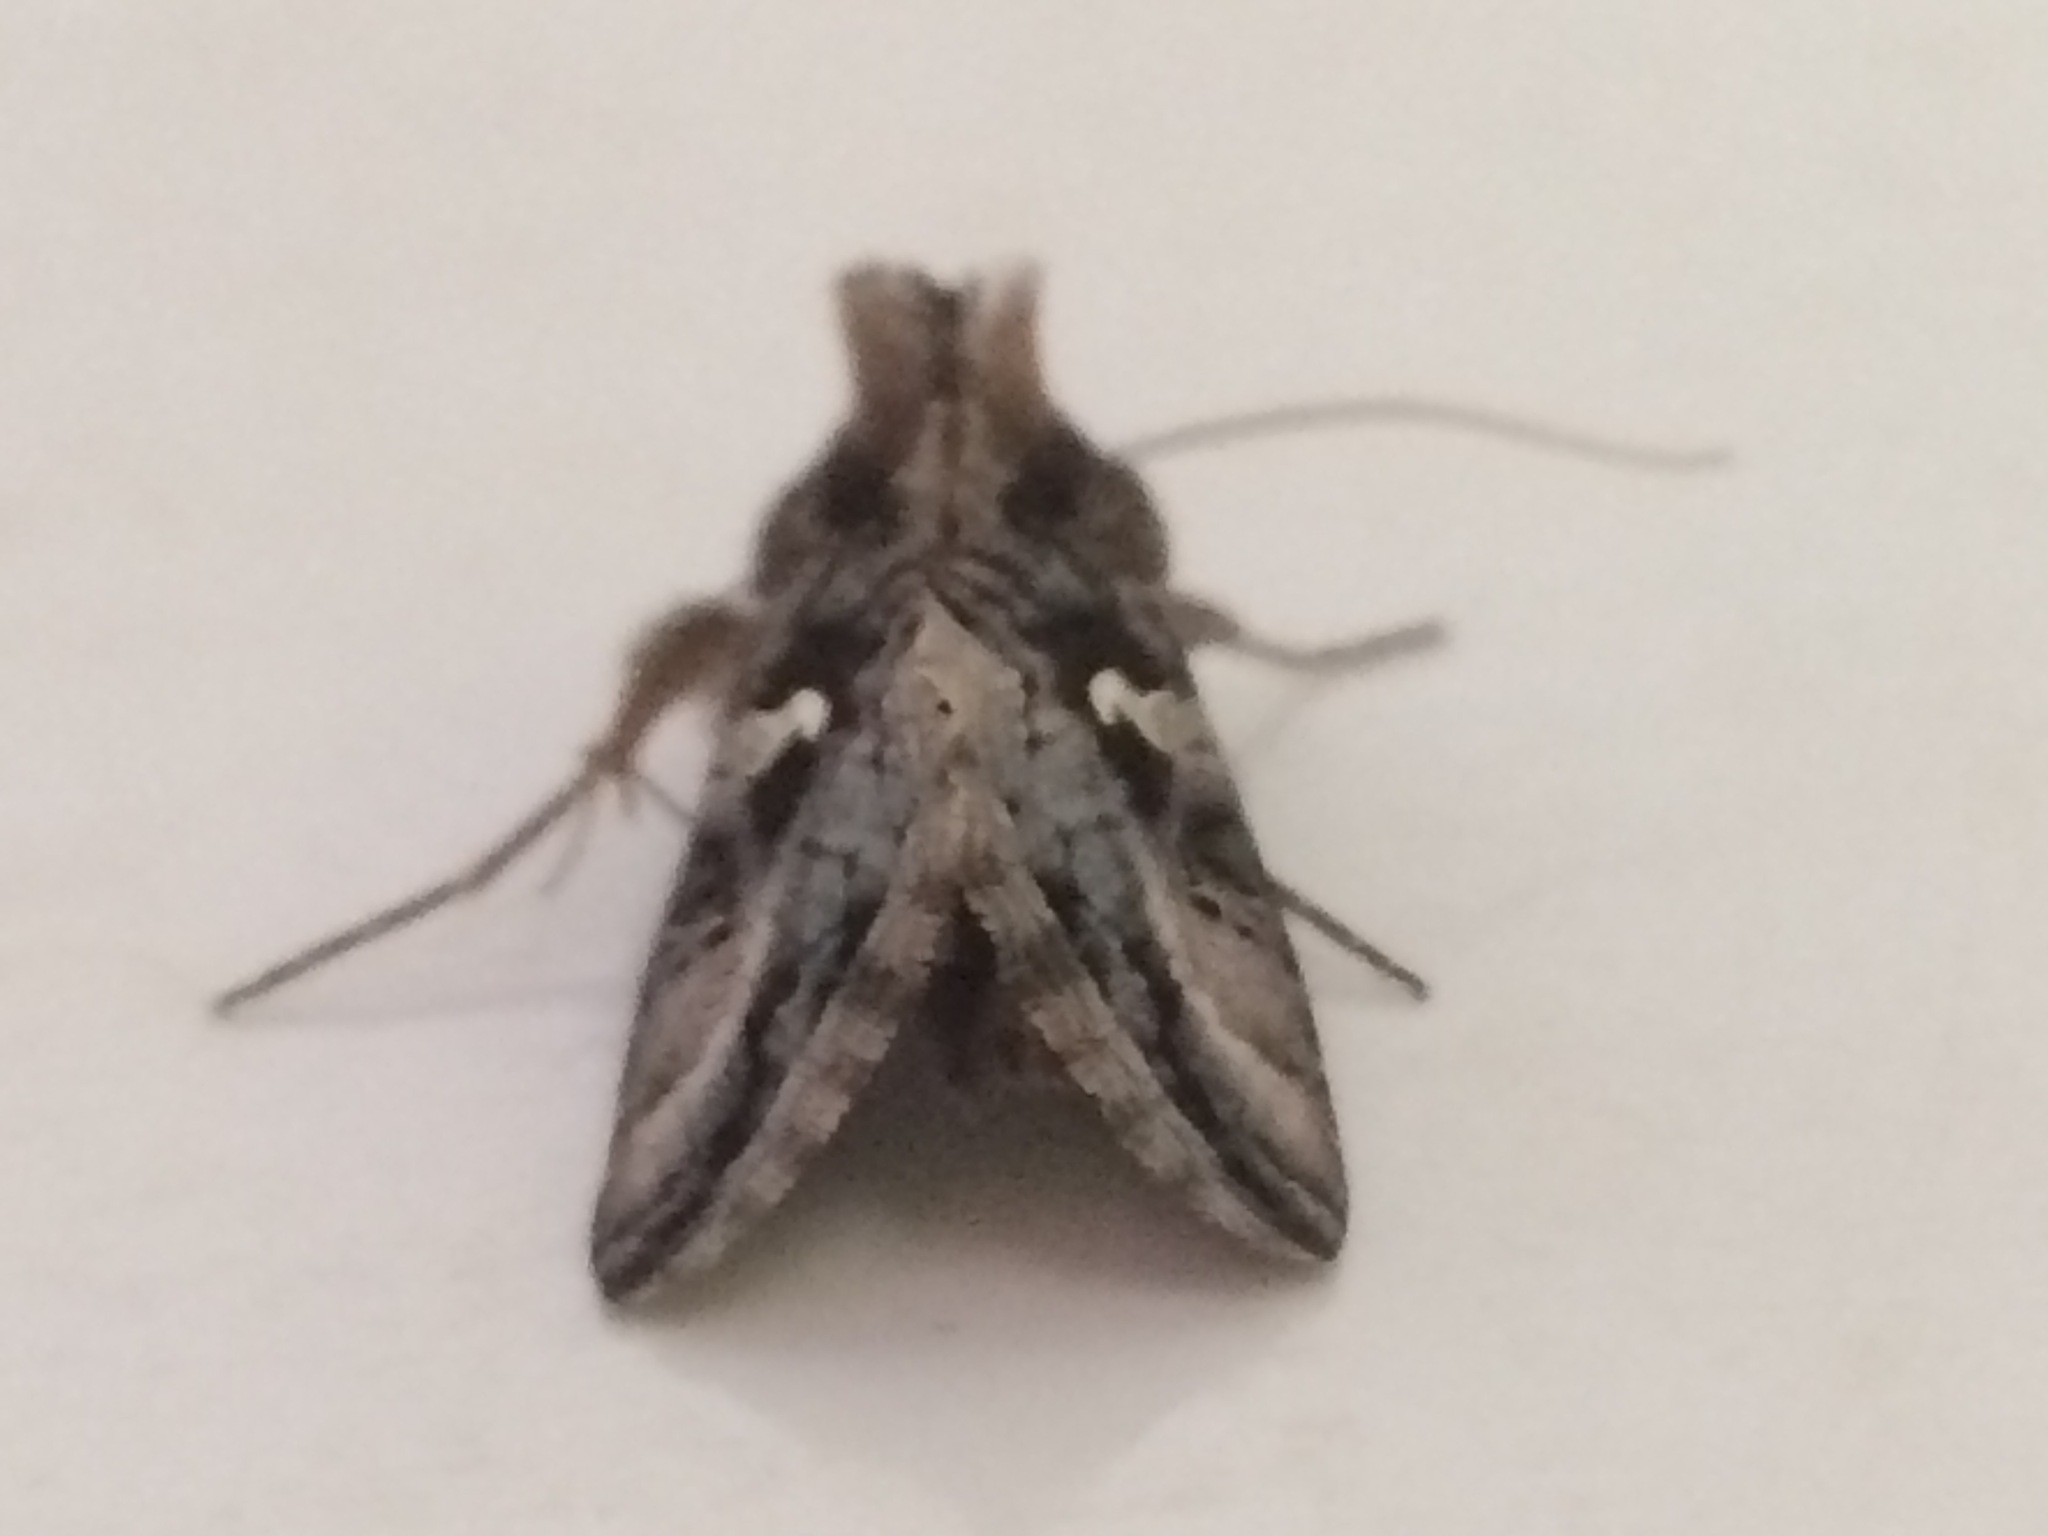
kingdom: Animalia
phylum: Arthropoda
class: Insecta
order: Lepidoptera
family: Noctuidae
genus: Autographa
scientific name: Autographa gamma
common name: Silver y
